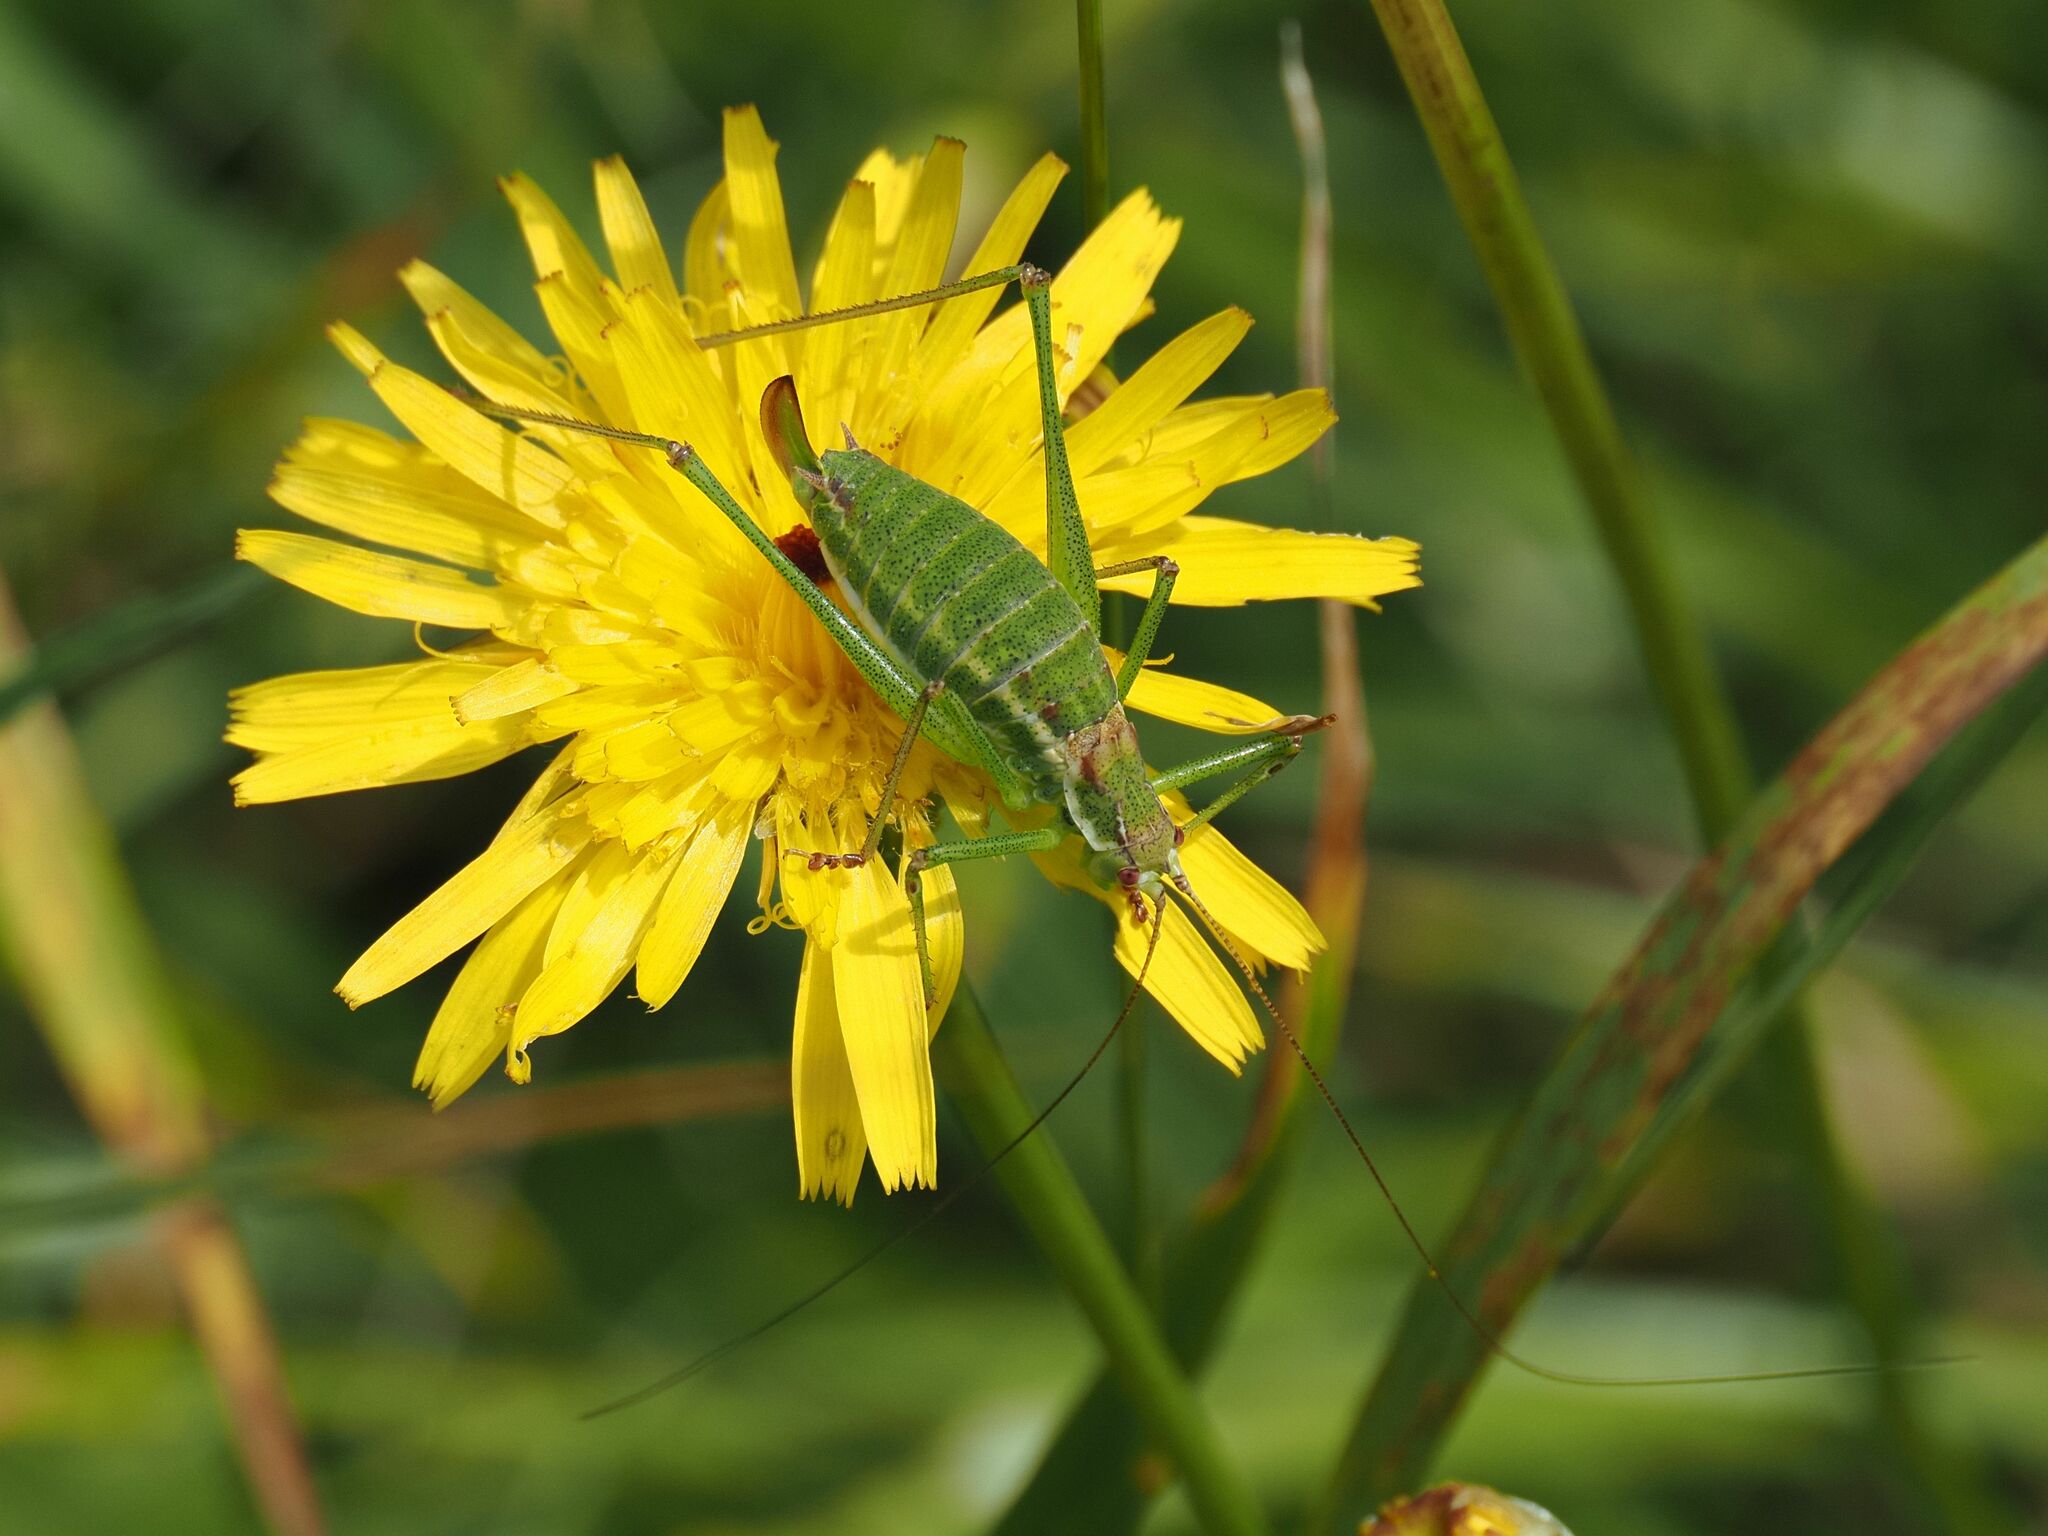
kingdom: Animalia
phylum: Arthropoda
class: Insecta
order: Orthoptera
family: Tettigoniidae
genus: Leptophyes
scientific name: Leptophyes albovittata
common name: Striped bush-cricket
